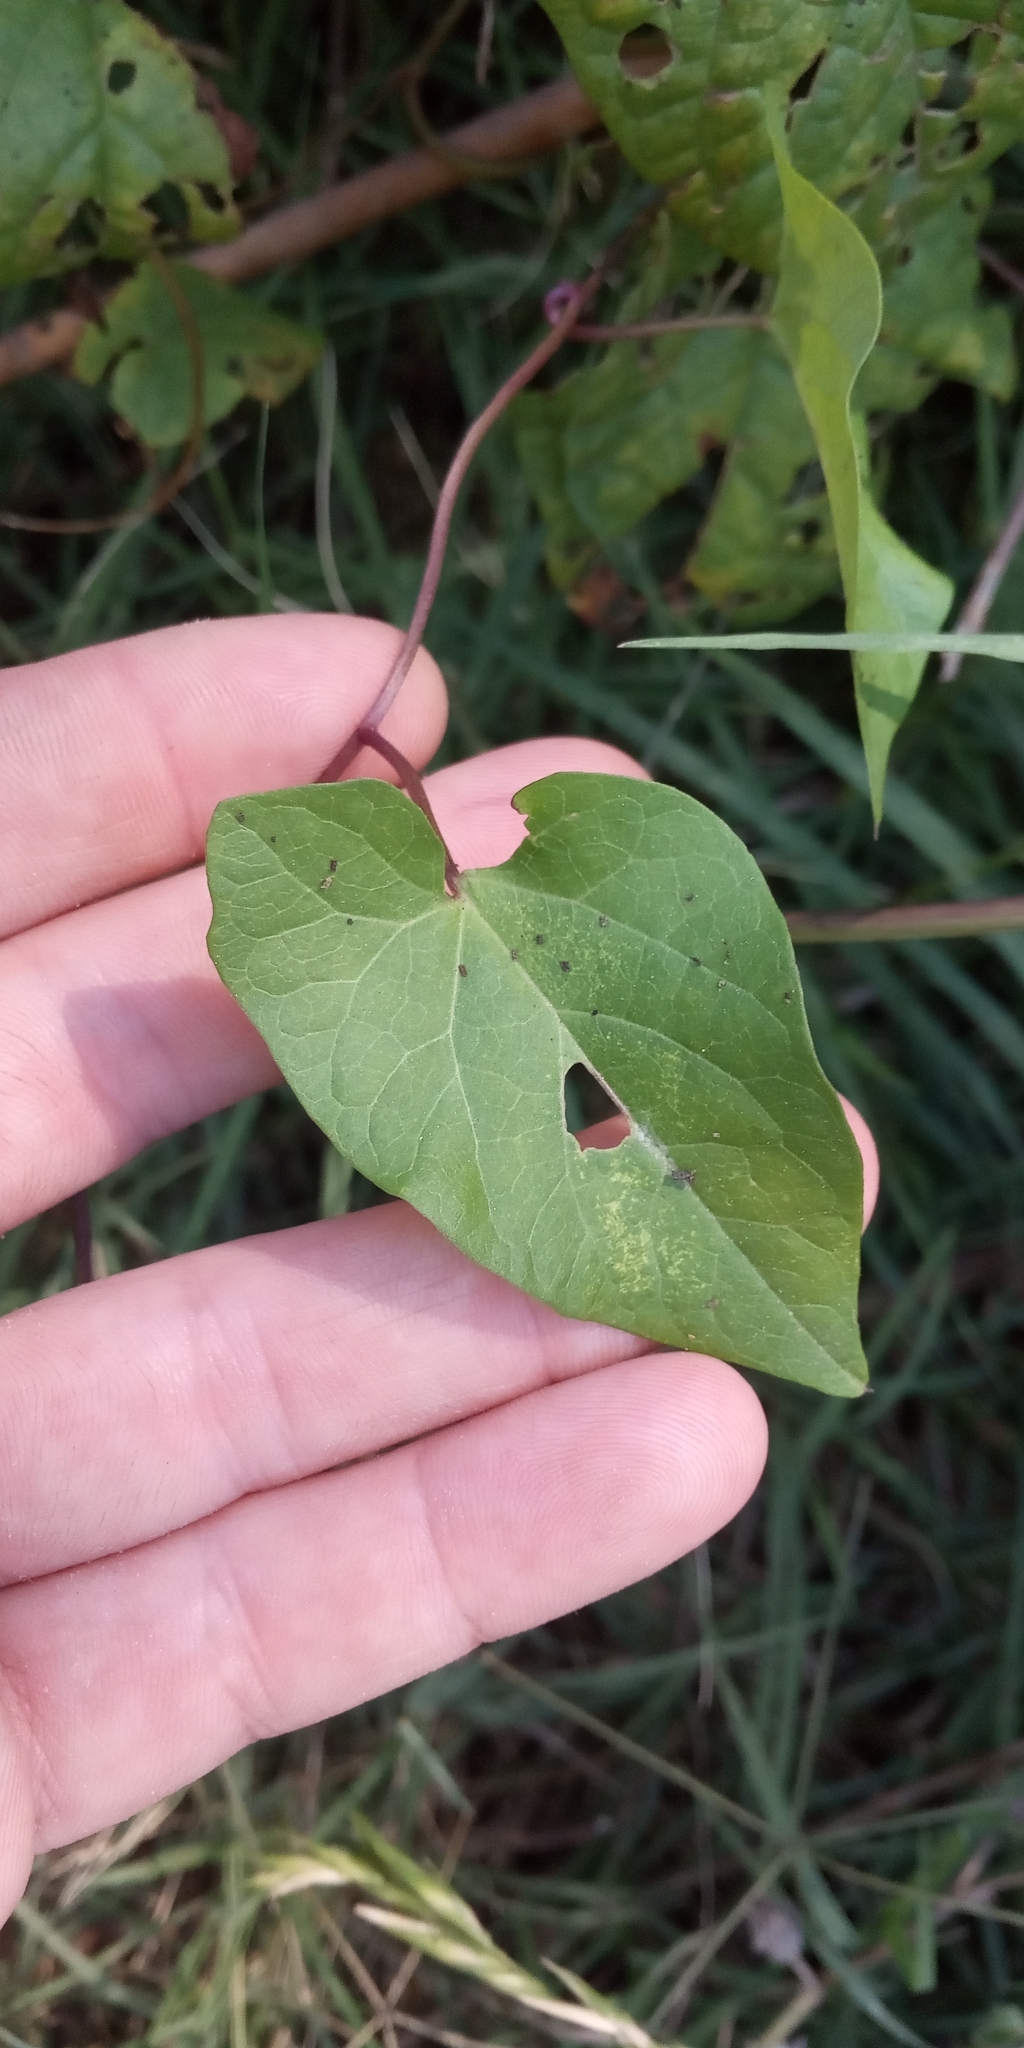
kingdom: Plantae
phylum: Tracheophyta
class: Magnoliopsida
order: Solanales
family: Convolvulaceae
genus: Calystegia
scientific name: Calystegia sepium
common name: Hedge bindweed
